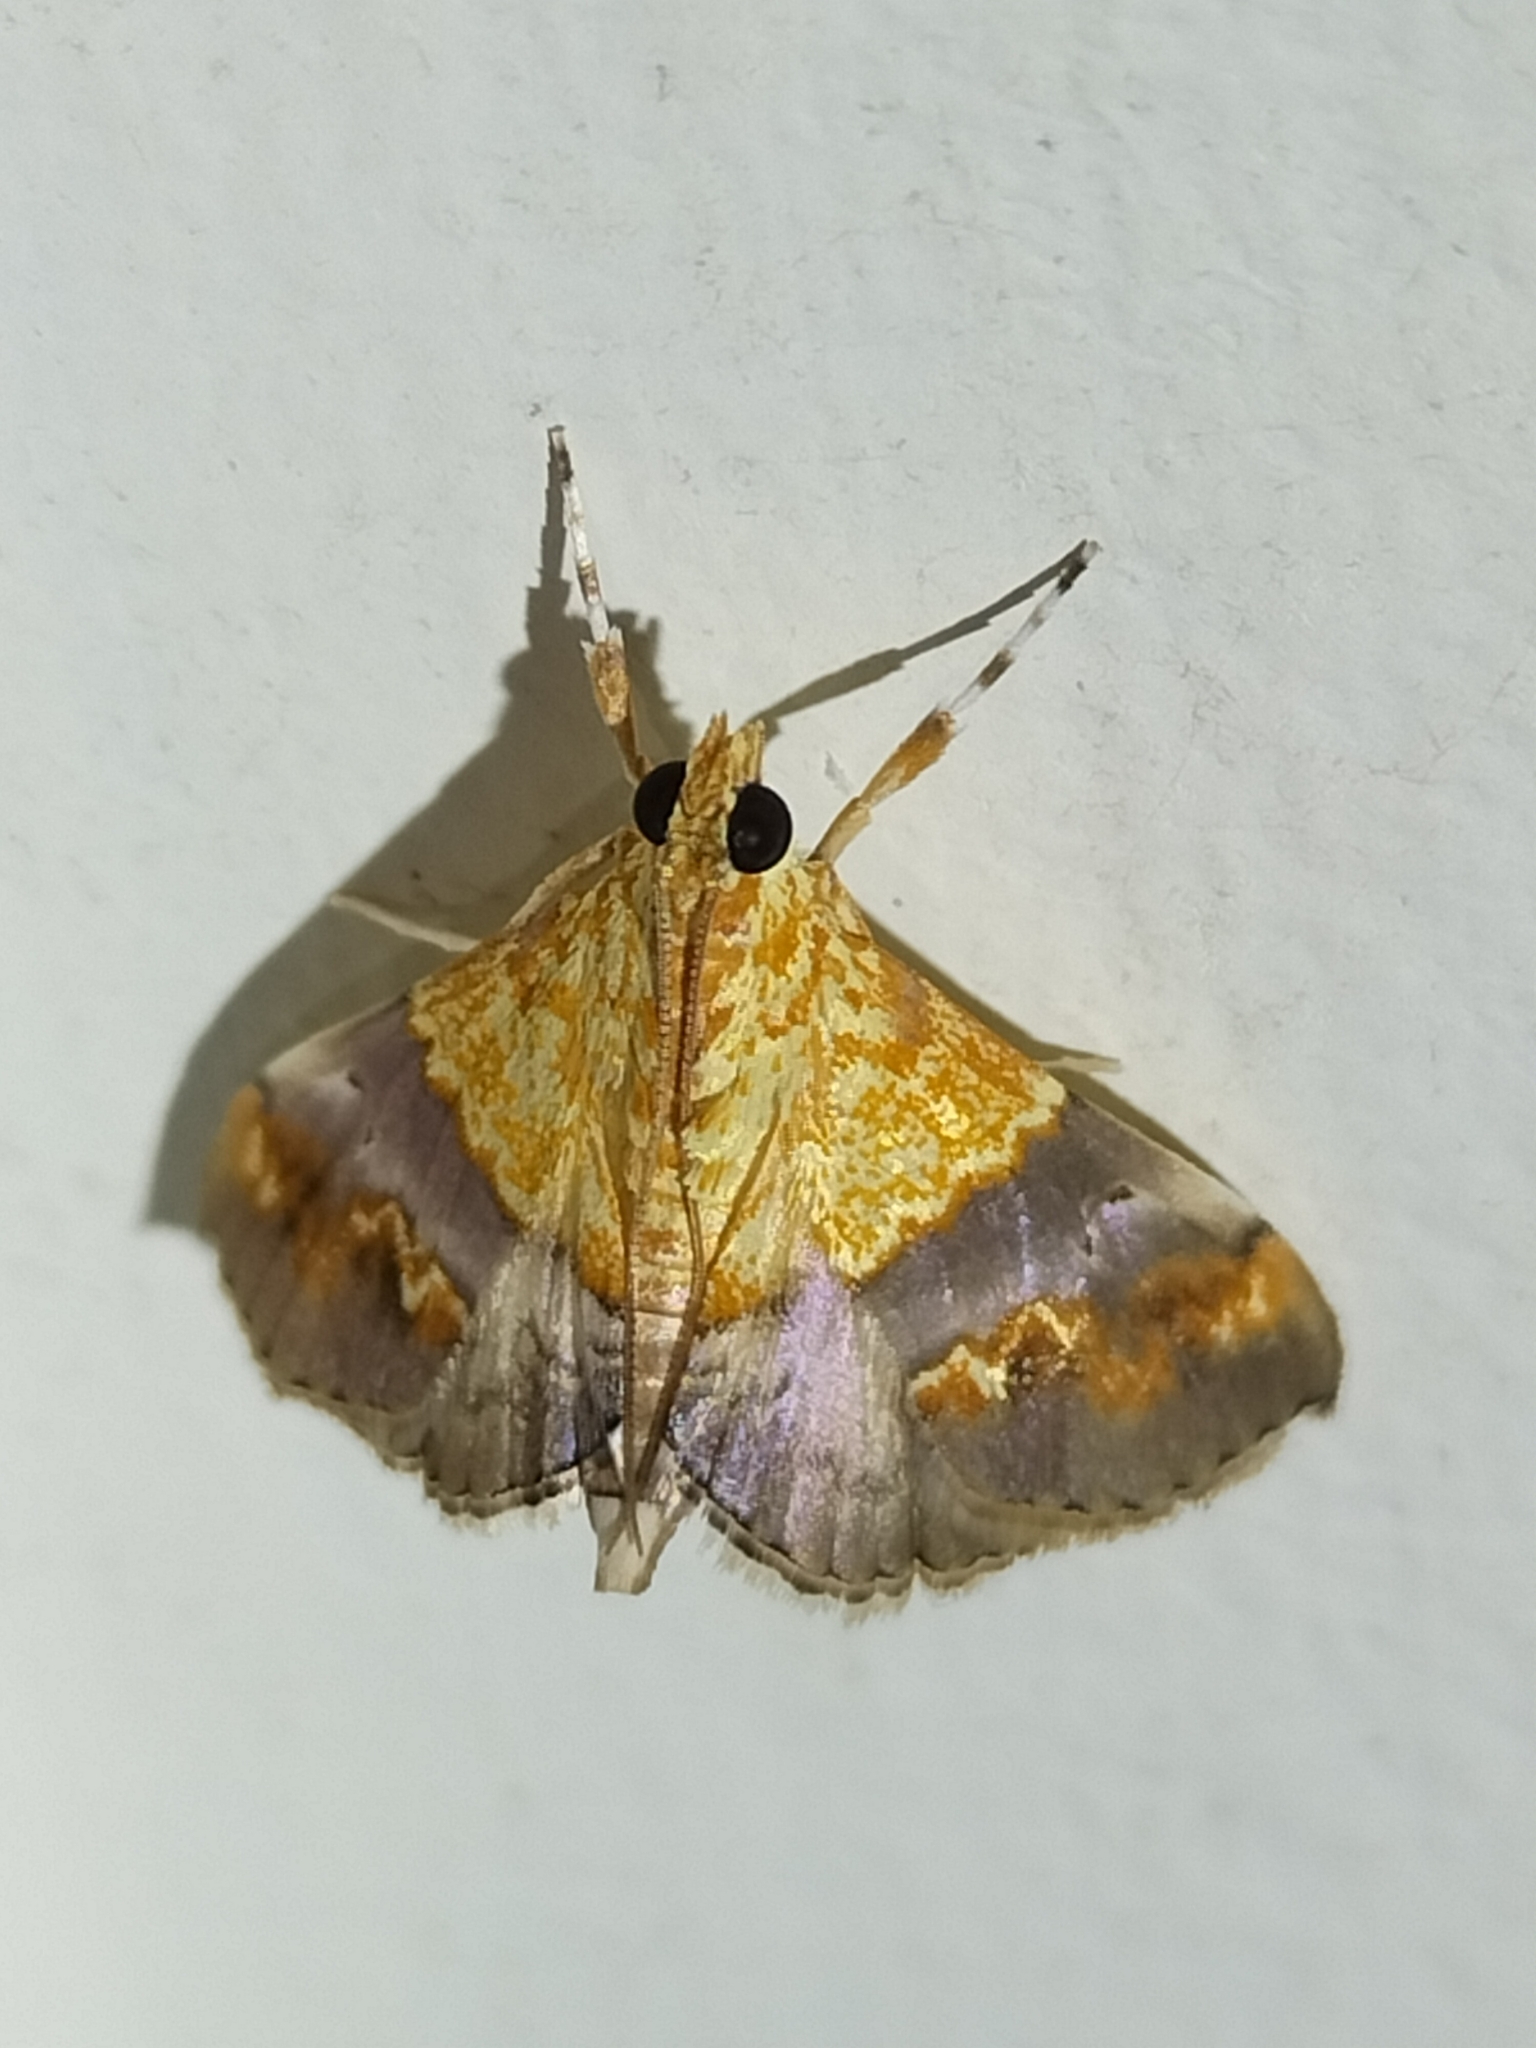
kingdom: Animalia
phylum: Arthropoda
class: Insecta
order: Lepidoptera
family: Crambidae
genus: Agrotera
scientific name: Agrotera Tetracona amathealis
